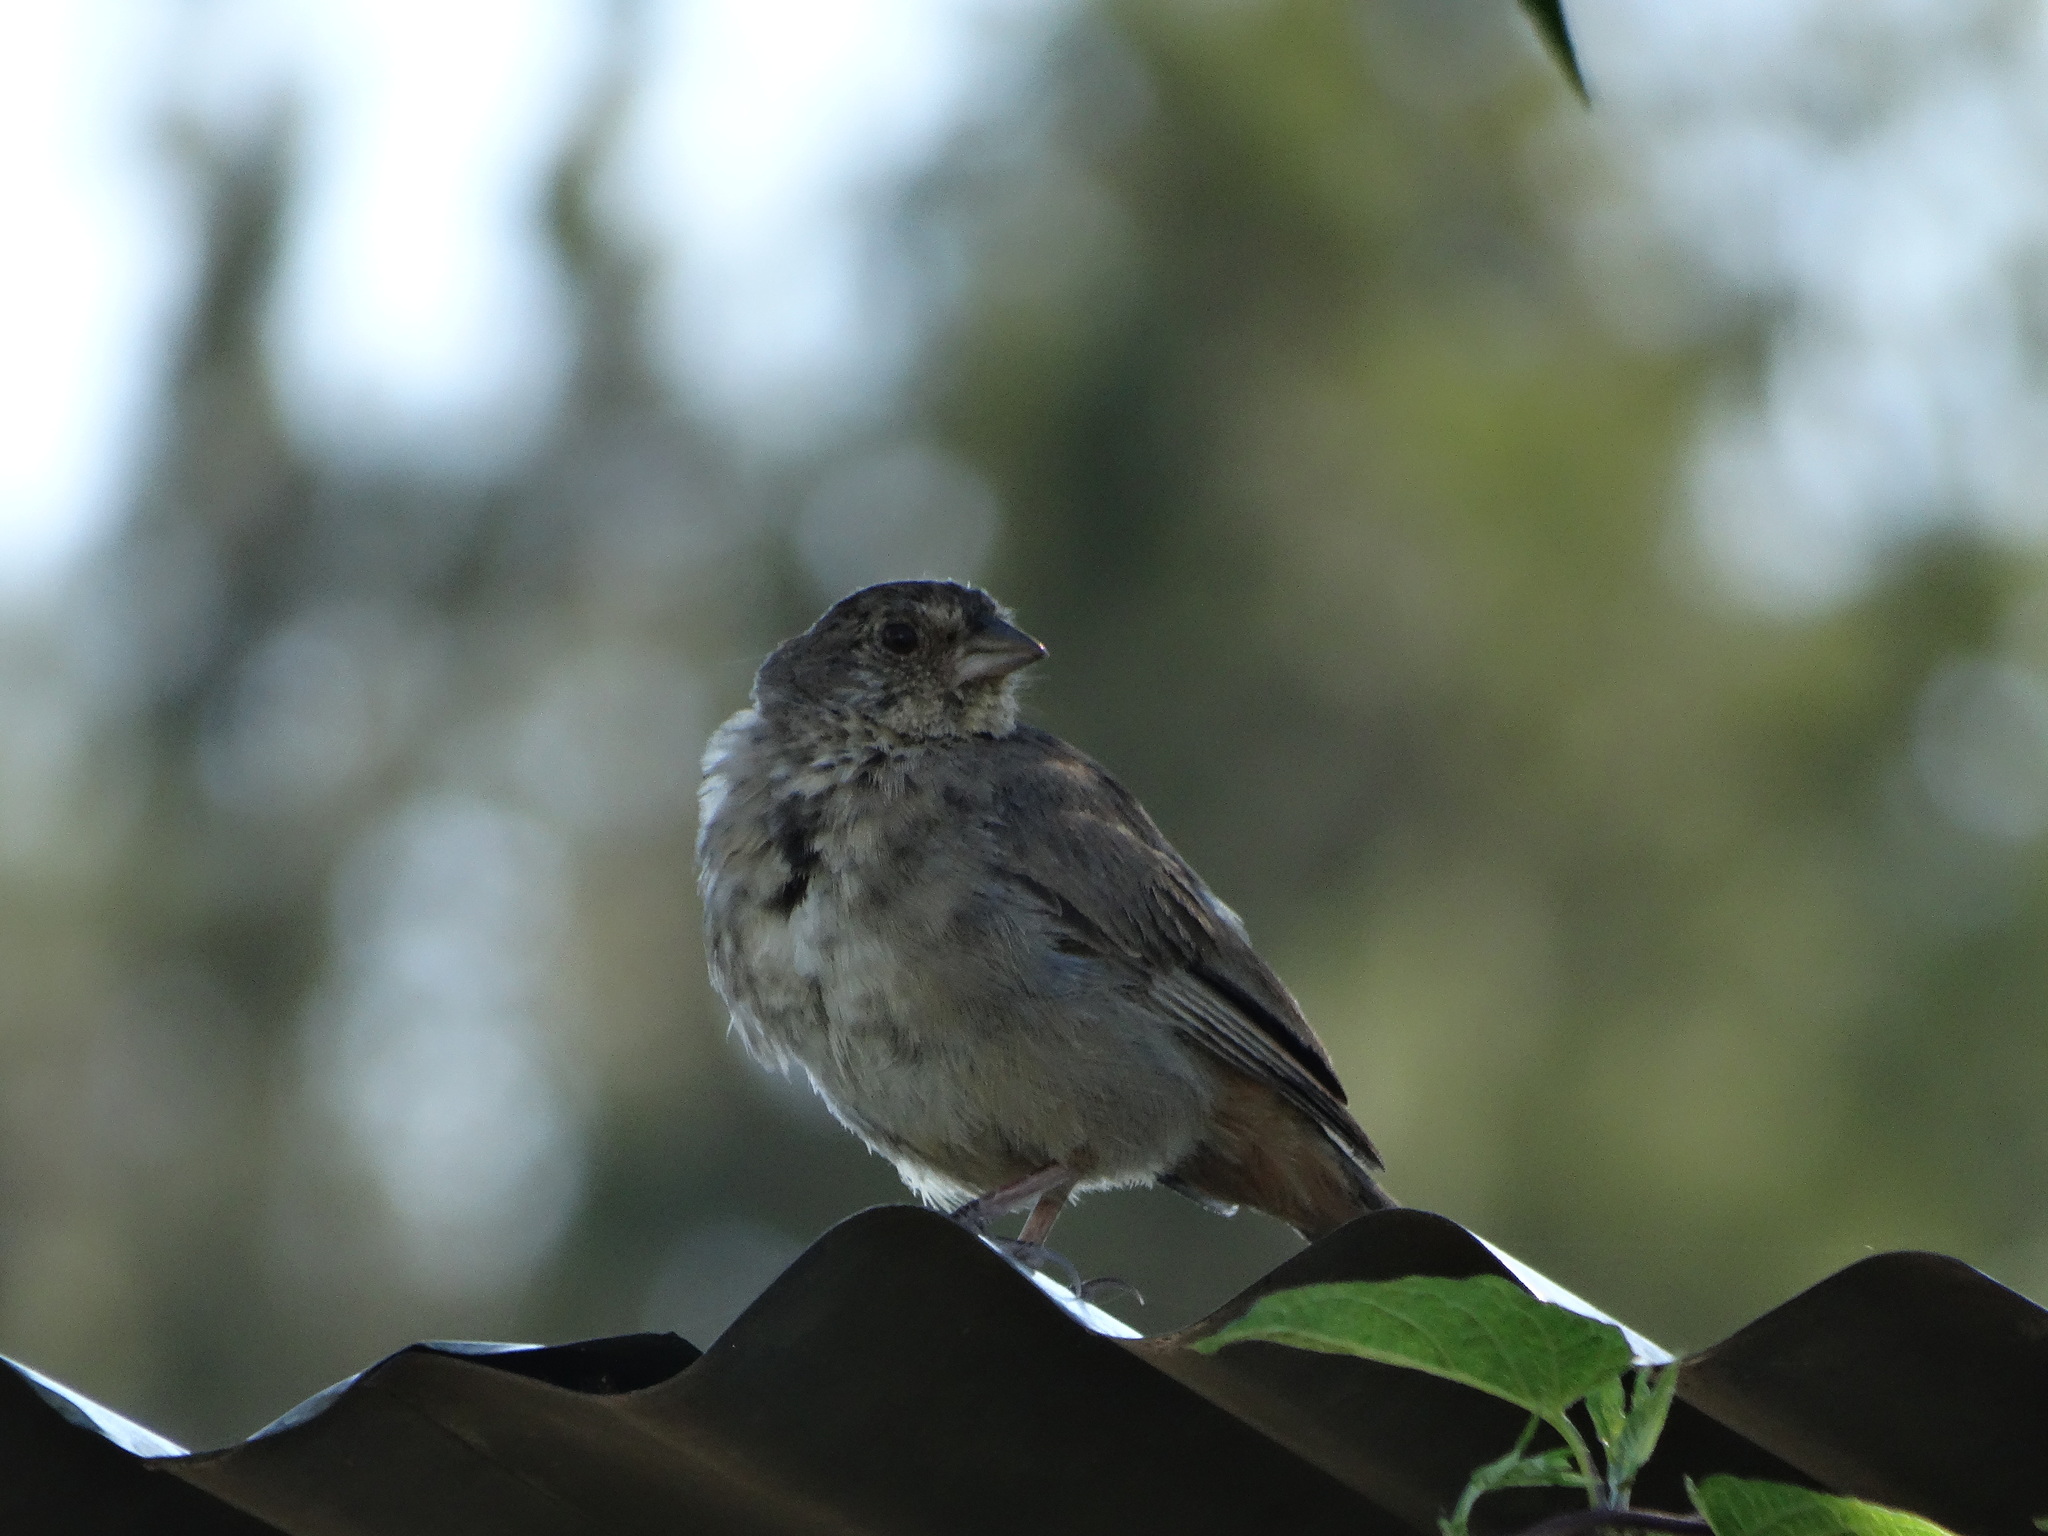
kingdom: Animalia
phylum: Chordata
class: Aves
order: Passeriformes
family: Passerellidae
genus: Melozone
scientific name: Melozone fusca
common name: Canyon towhee
